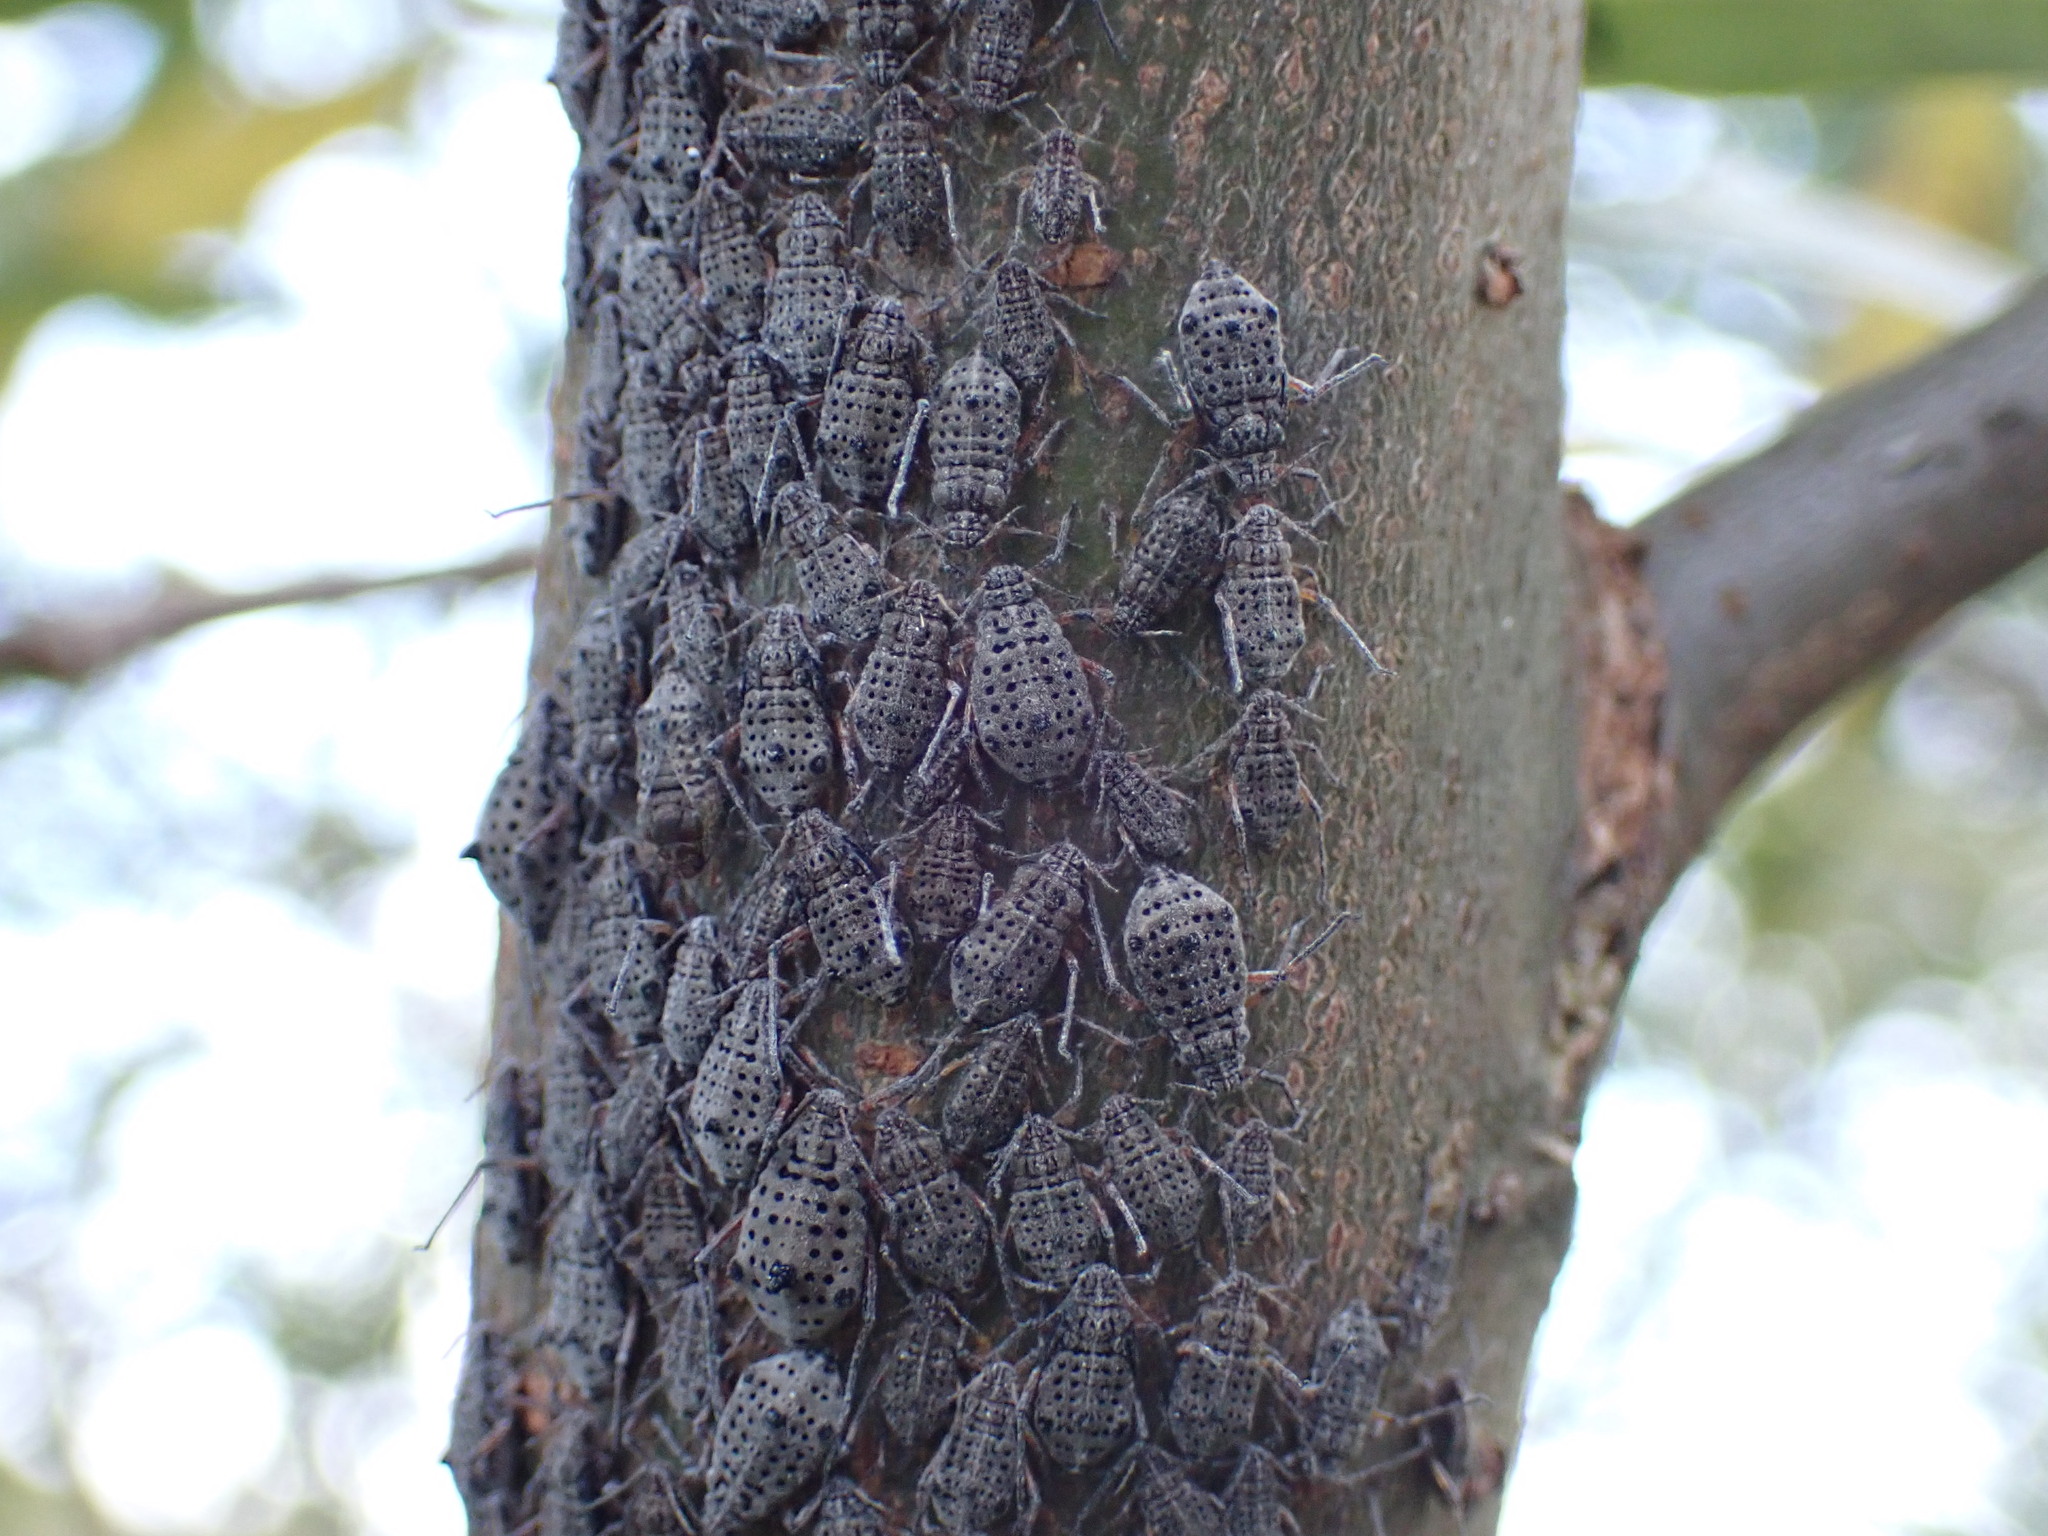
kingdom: Animalia
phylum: Arthropoda
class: Insecta
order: Hemiptera
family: Aphididae
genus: Tuberolachnus
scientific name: Tuberolachnus salignus
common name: Giant willow aphid
